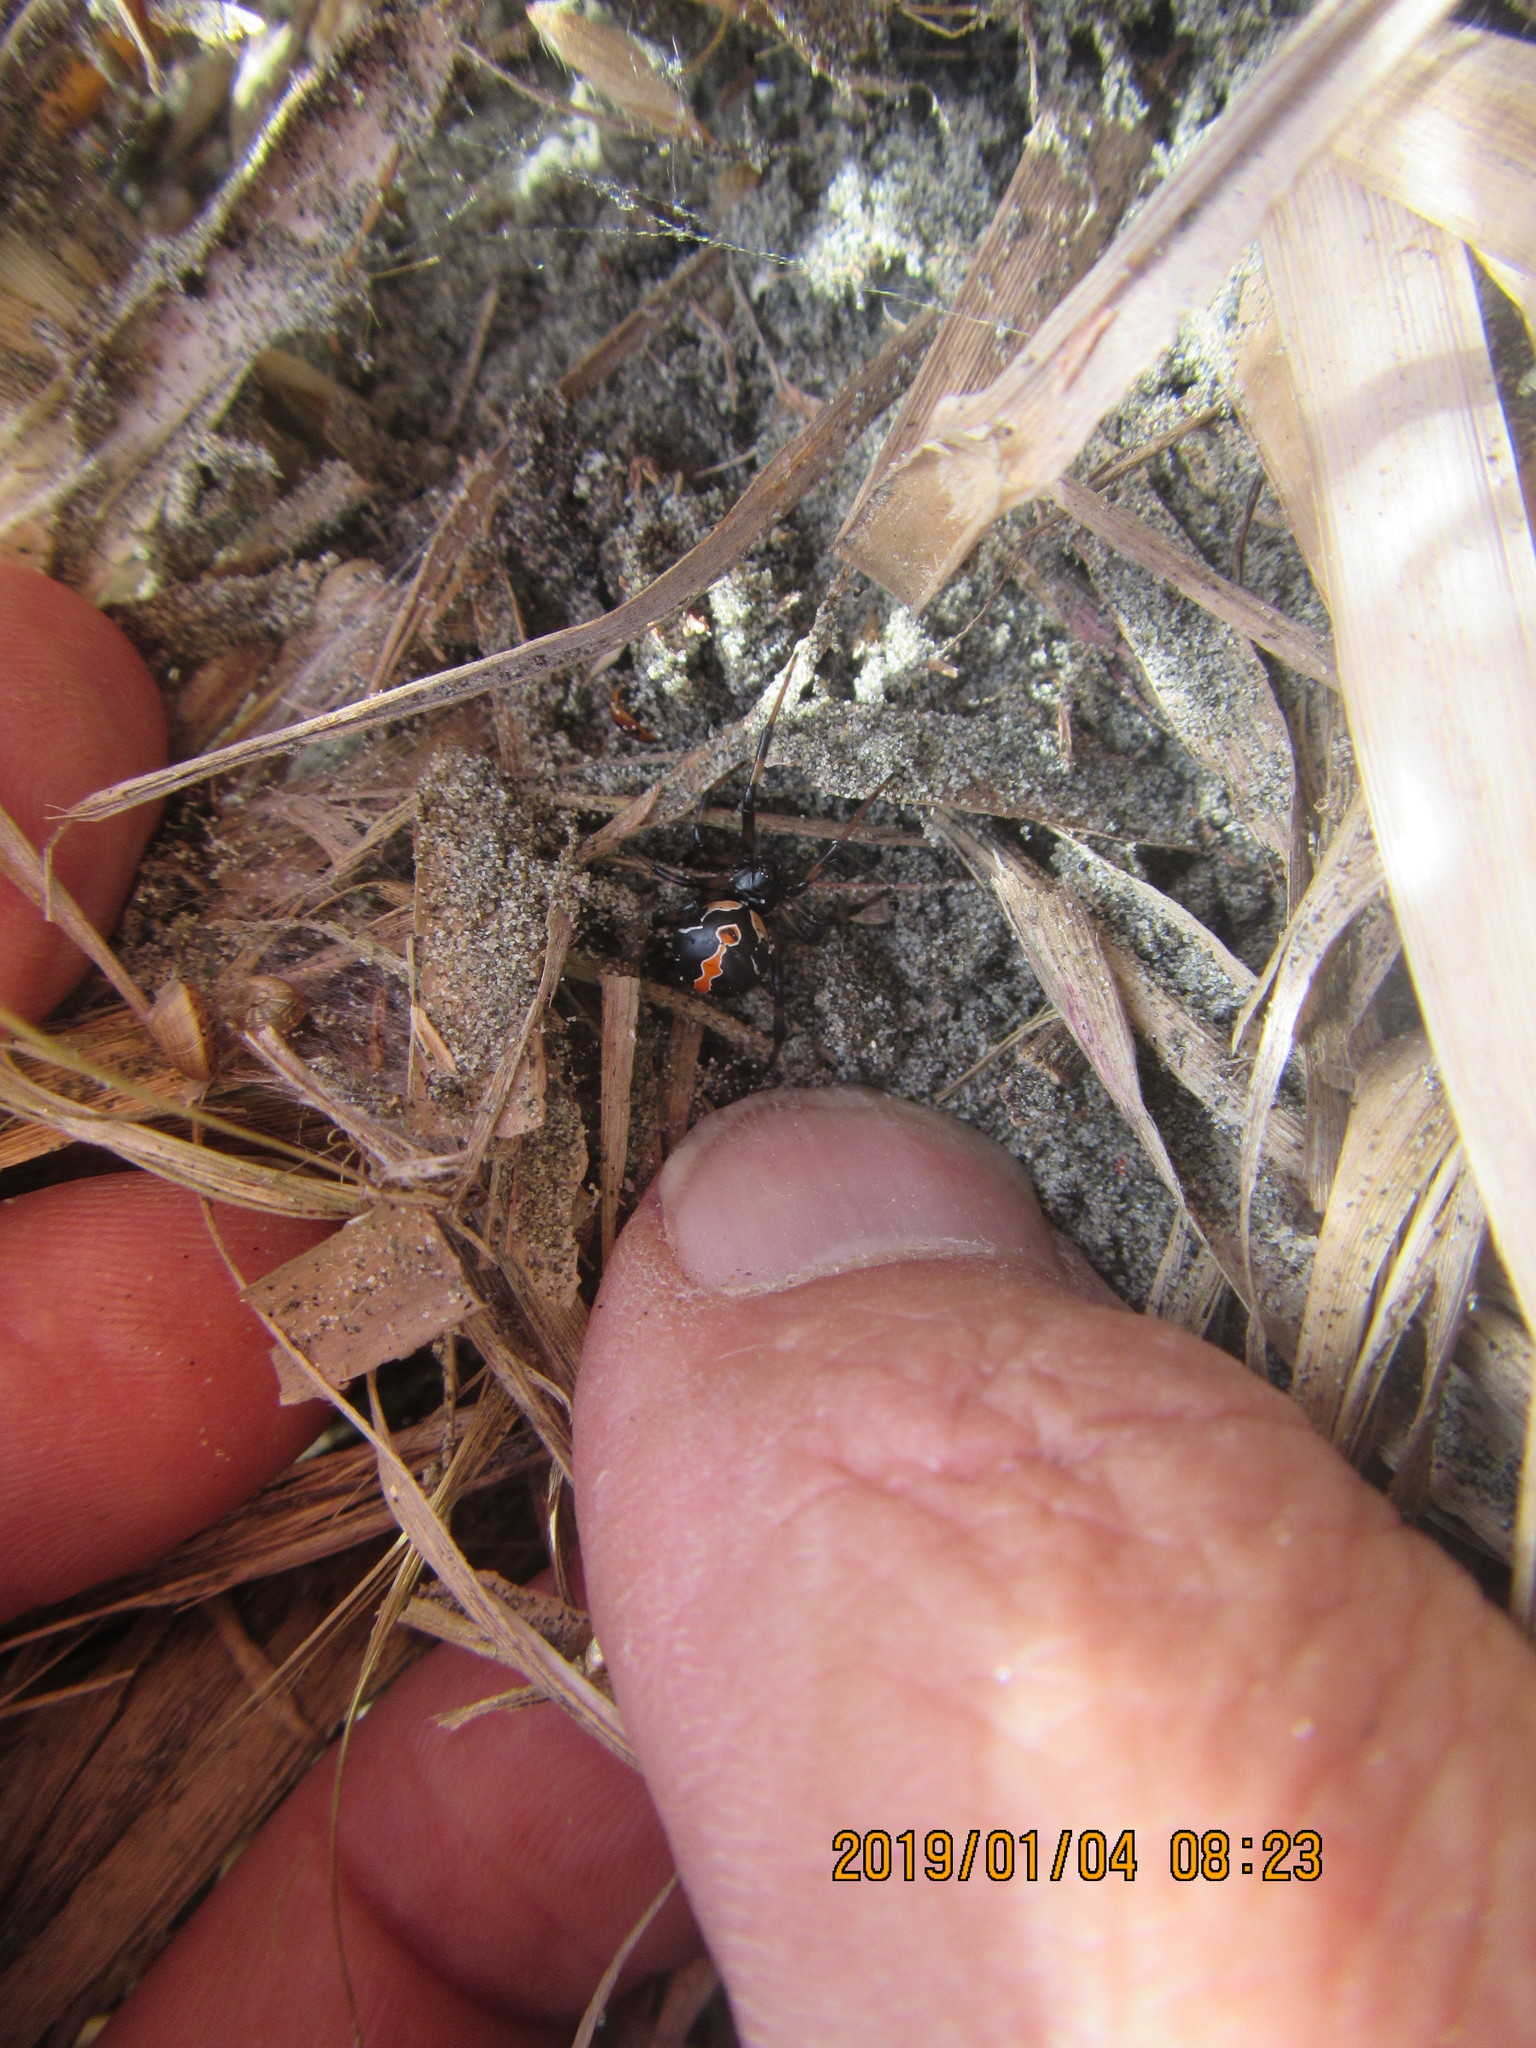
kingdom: Animalia
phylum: Arthropoda
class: Arachnida
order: Araneae
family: Theridiidae
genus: Latrodectus
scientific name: Latrodectus katipo
